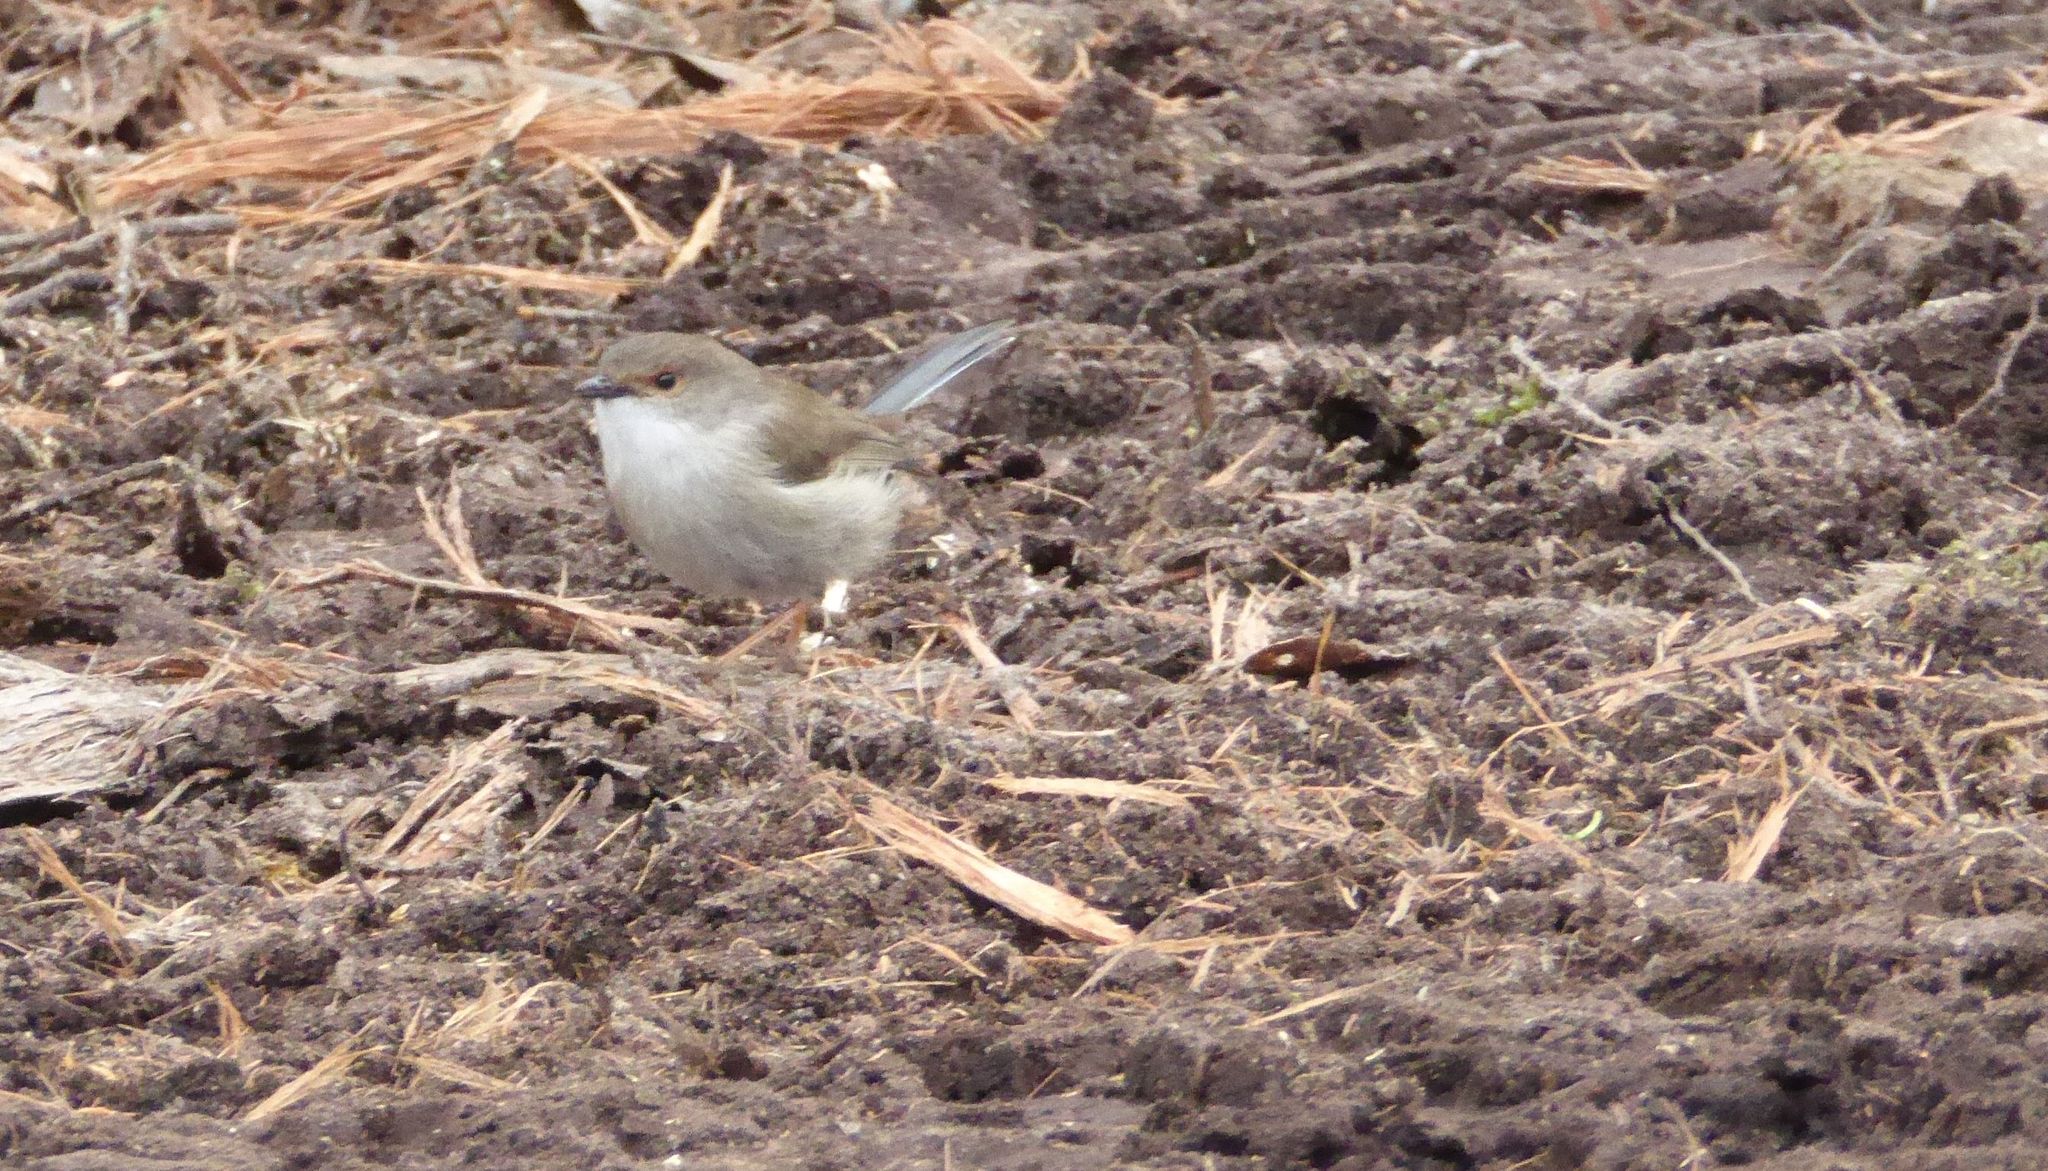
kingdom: Animalia
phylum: Chordata
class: Aves
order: Passeriformes
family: Maluridae
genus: Malurus
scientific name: Malurus cyaneus
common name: Superb fairywren
